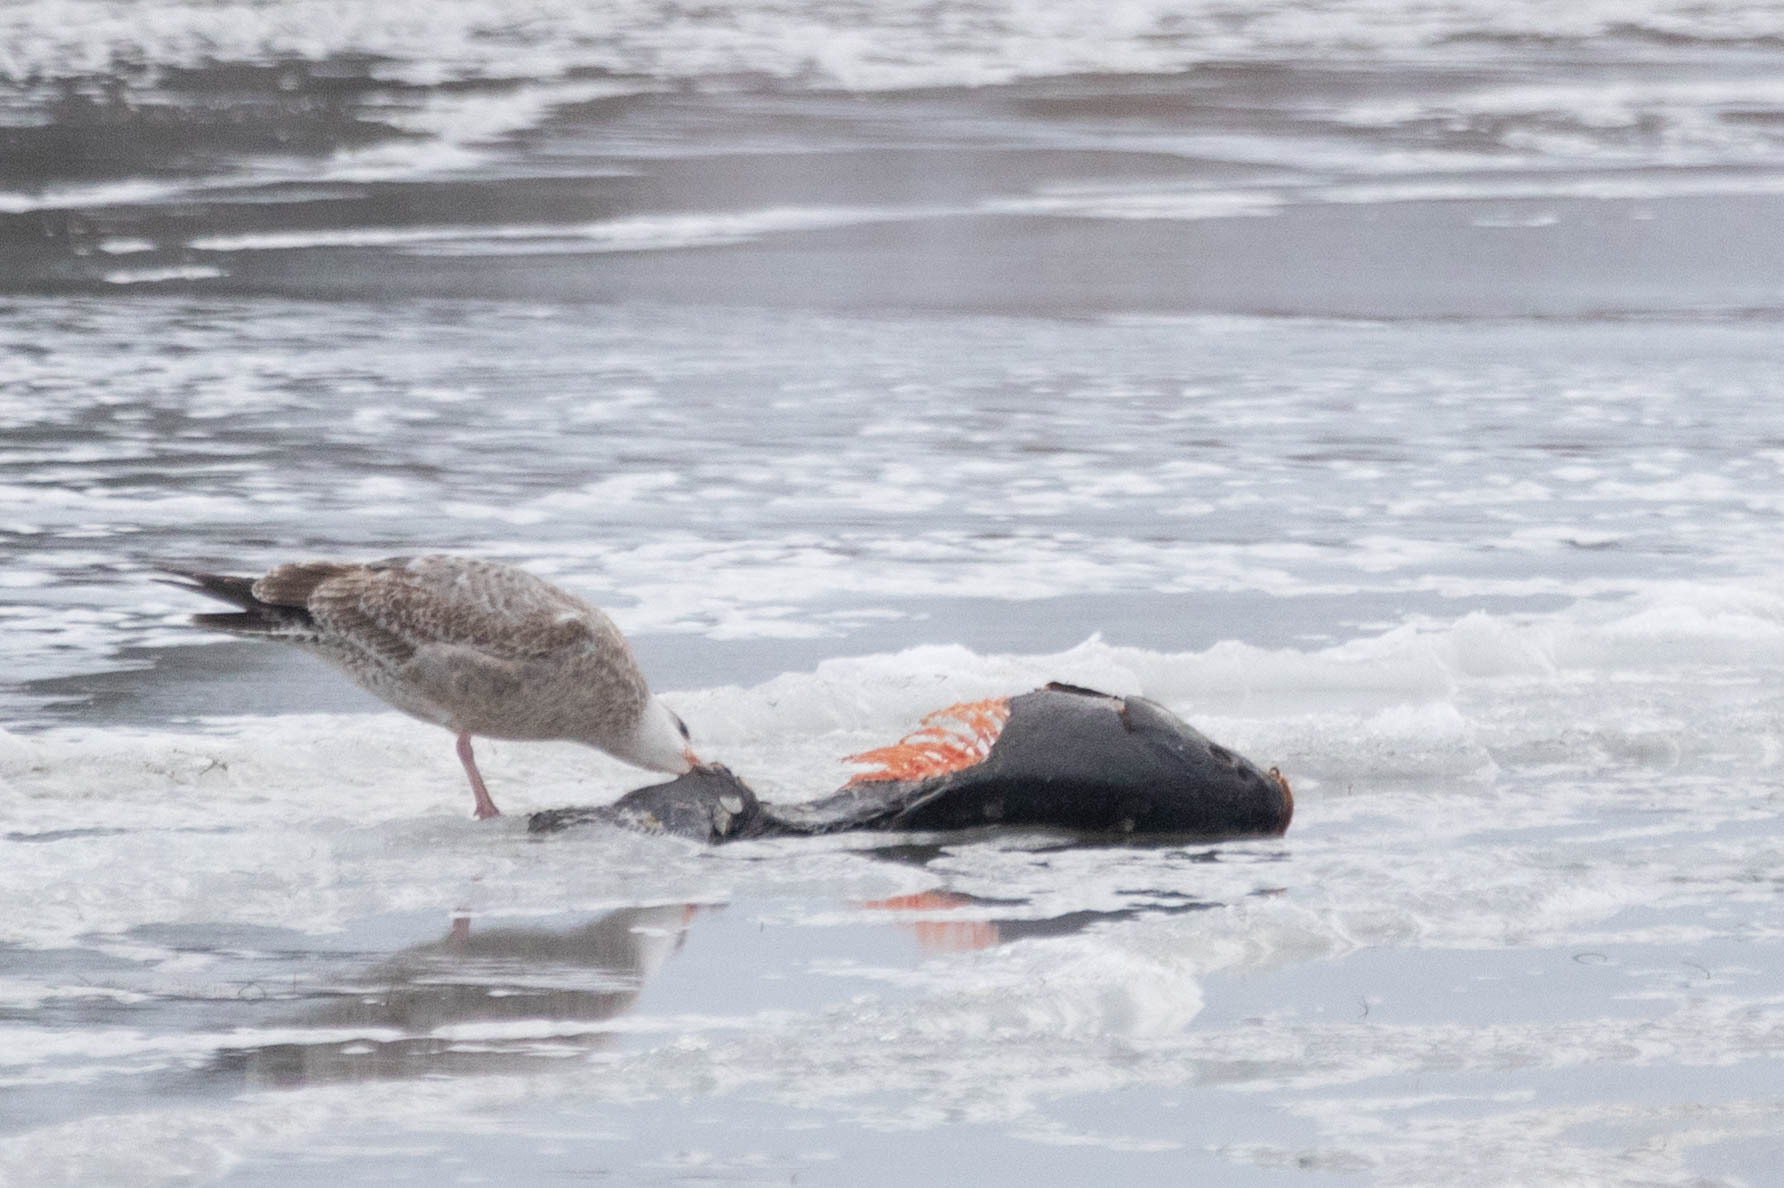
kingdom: Animalia
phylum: Chordata
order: Cypriniformes
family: Cyprinidae
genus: Cyprinus
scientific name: Cyprinus carpio
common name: Common carp
